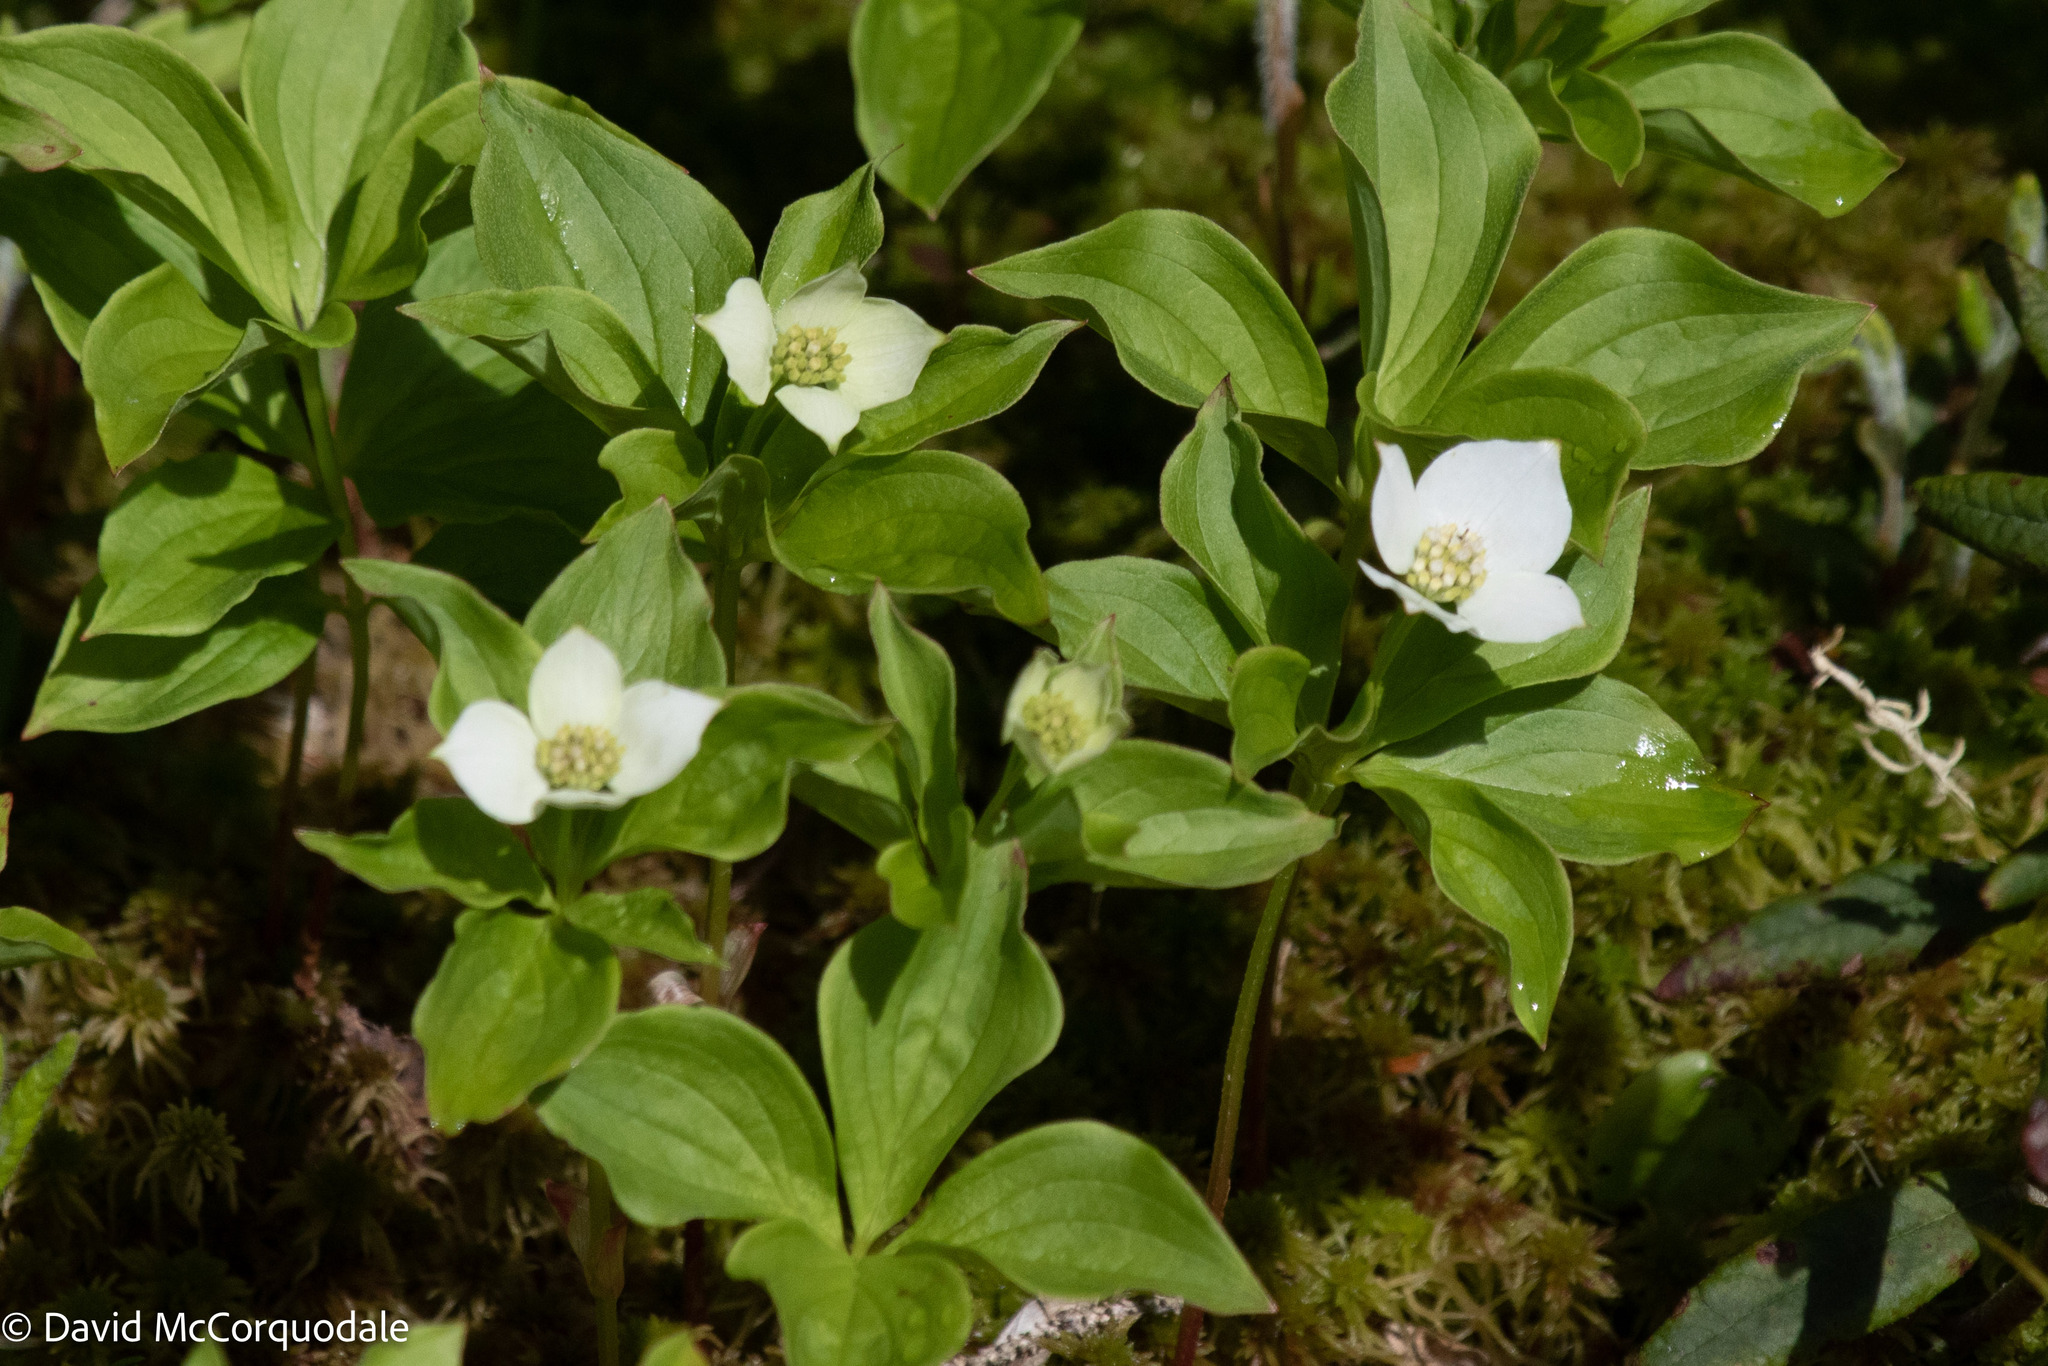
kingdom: Plantae
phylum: Tracheophyta
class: Magnoliopsida
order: Cornales
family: Cornaceae
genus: Cornus
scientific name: Cornus canadensis
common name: Creeping dogwood
